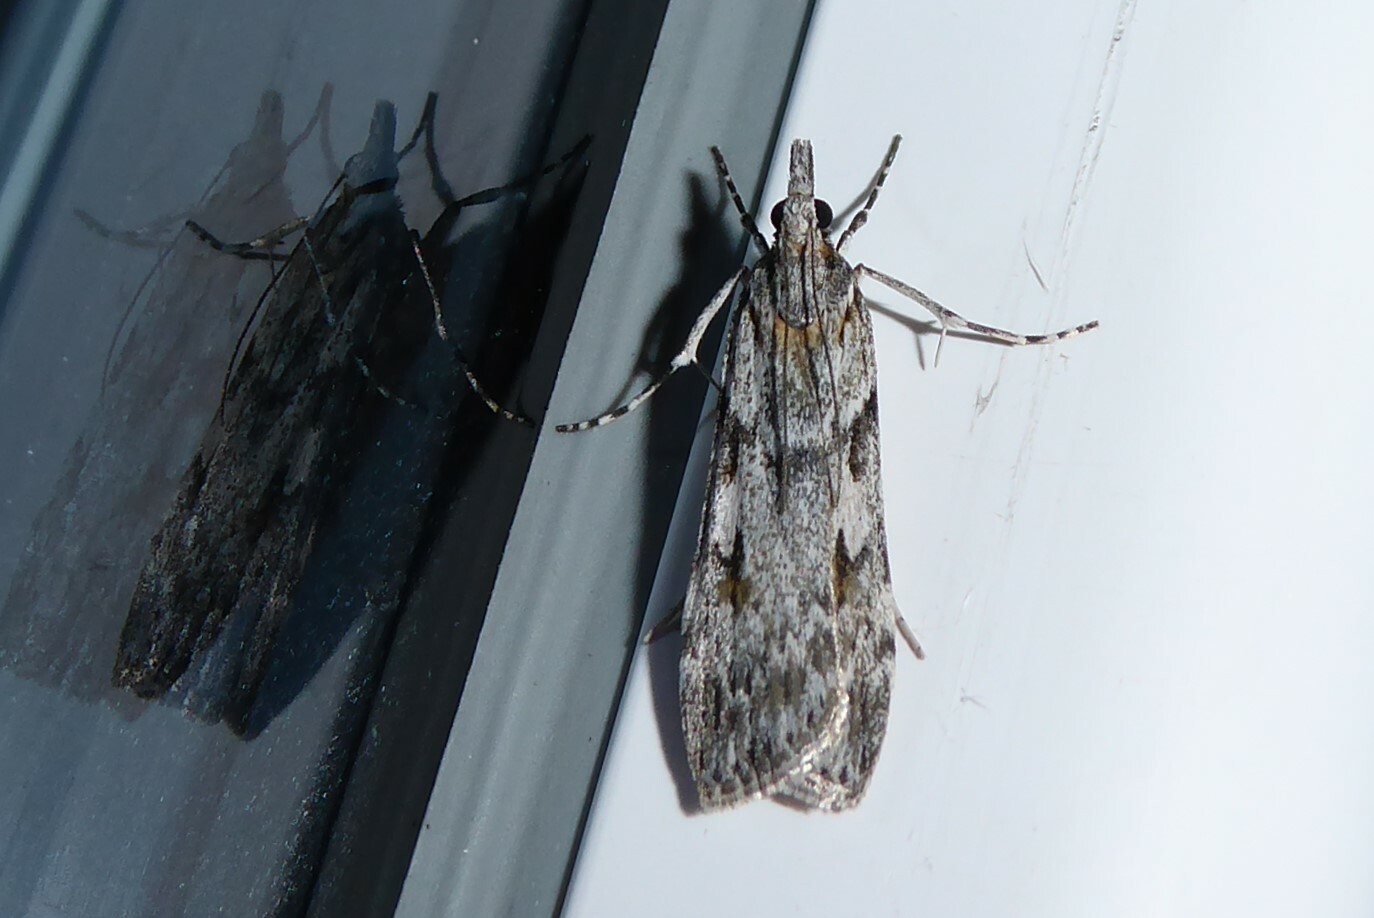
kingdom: Animalia
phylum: Arthropoda
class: Insecta
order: Lepidoptera
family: Crambidae
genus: Scoparia
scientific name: Scoparia halopis
